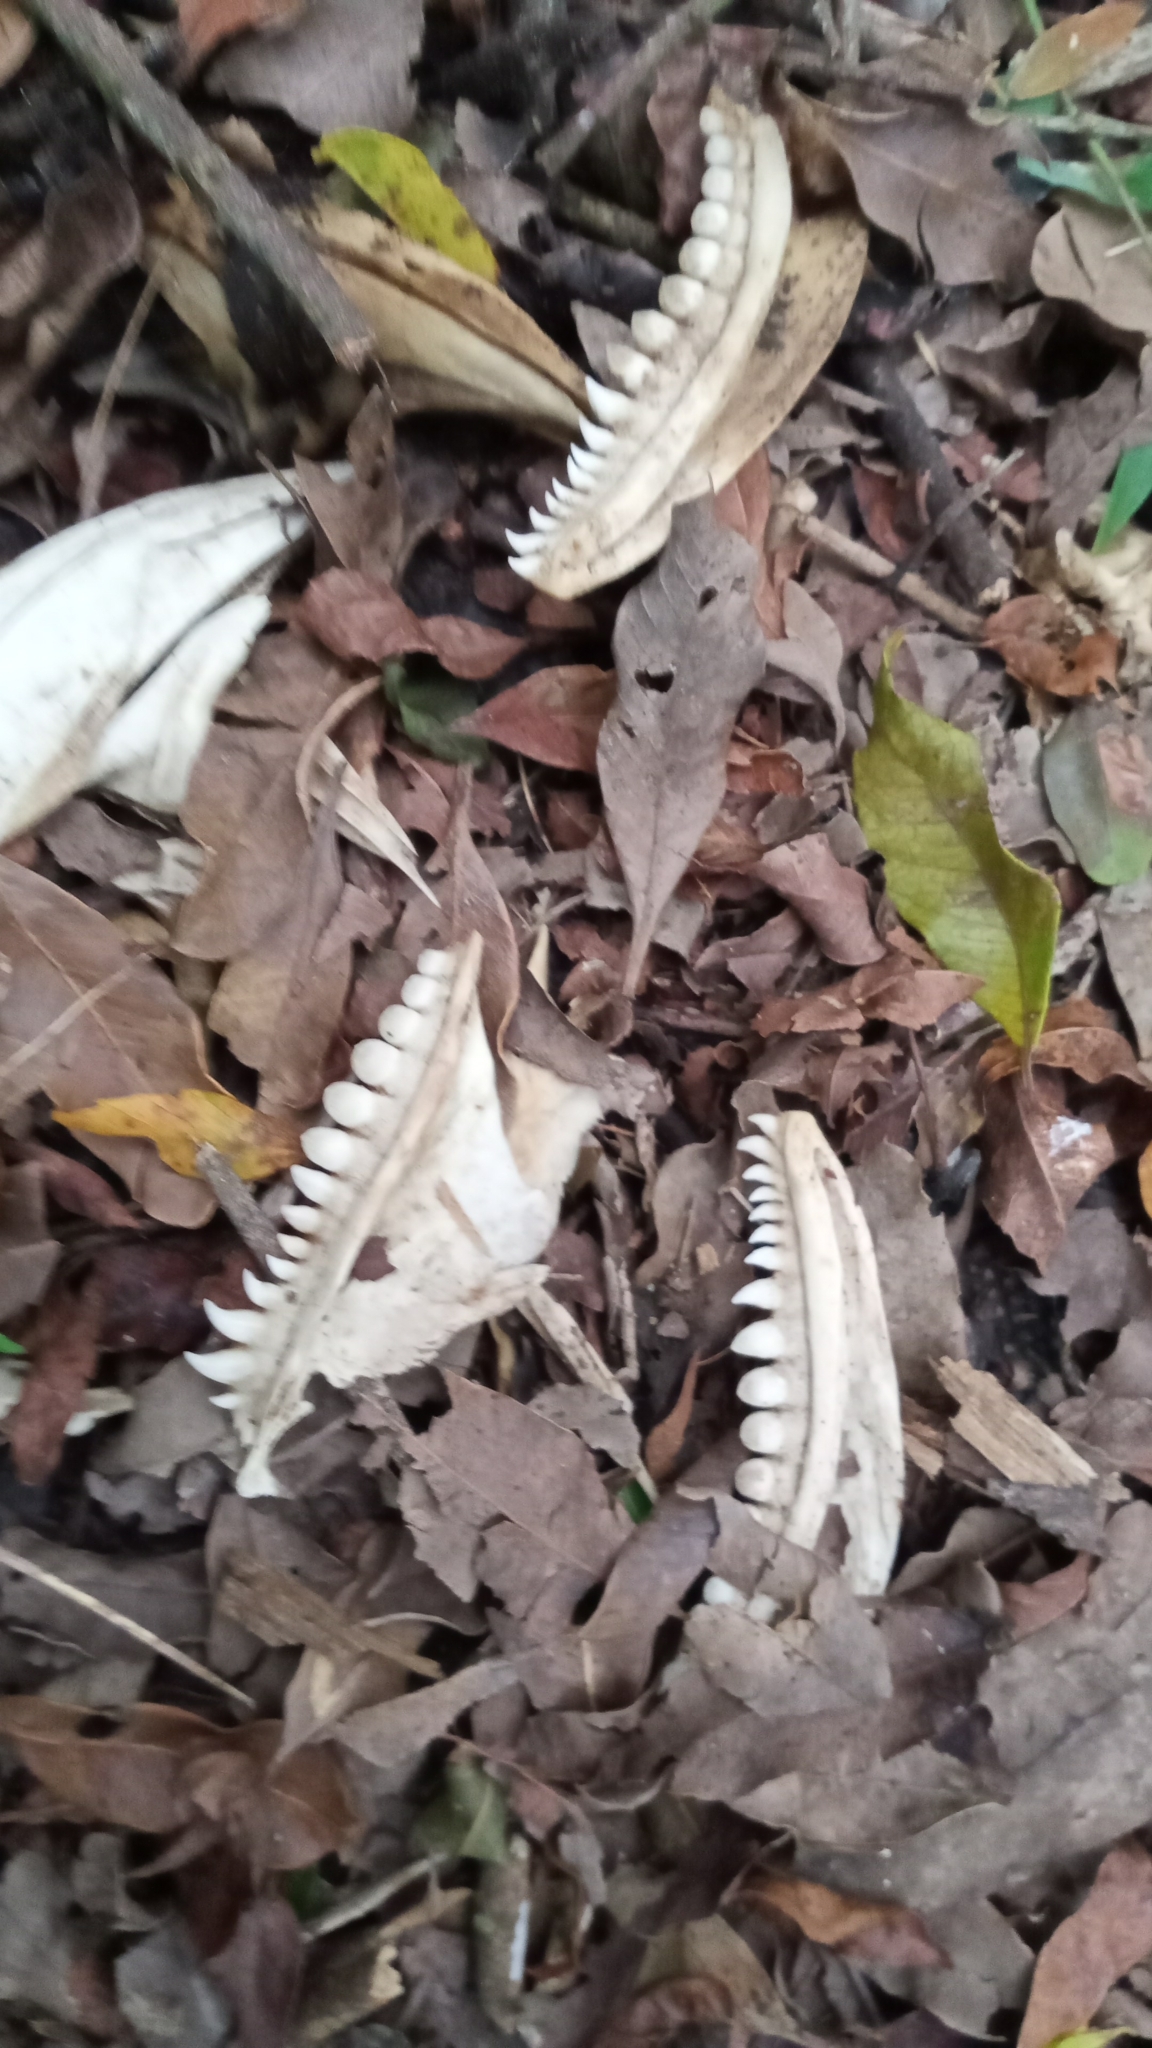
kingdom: Animalia
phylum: Chordata
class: Squamata
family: Teiidae
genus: Salvator
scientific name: Salvator merianae
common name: Argentine black and white tegu
